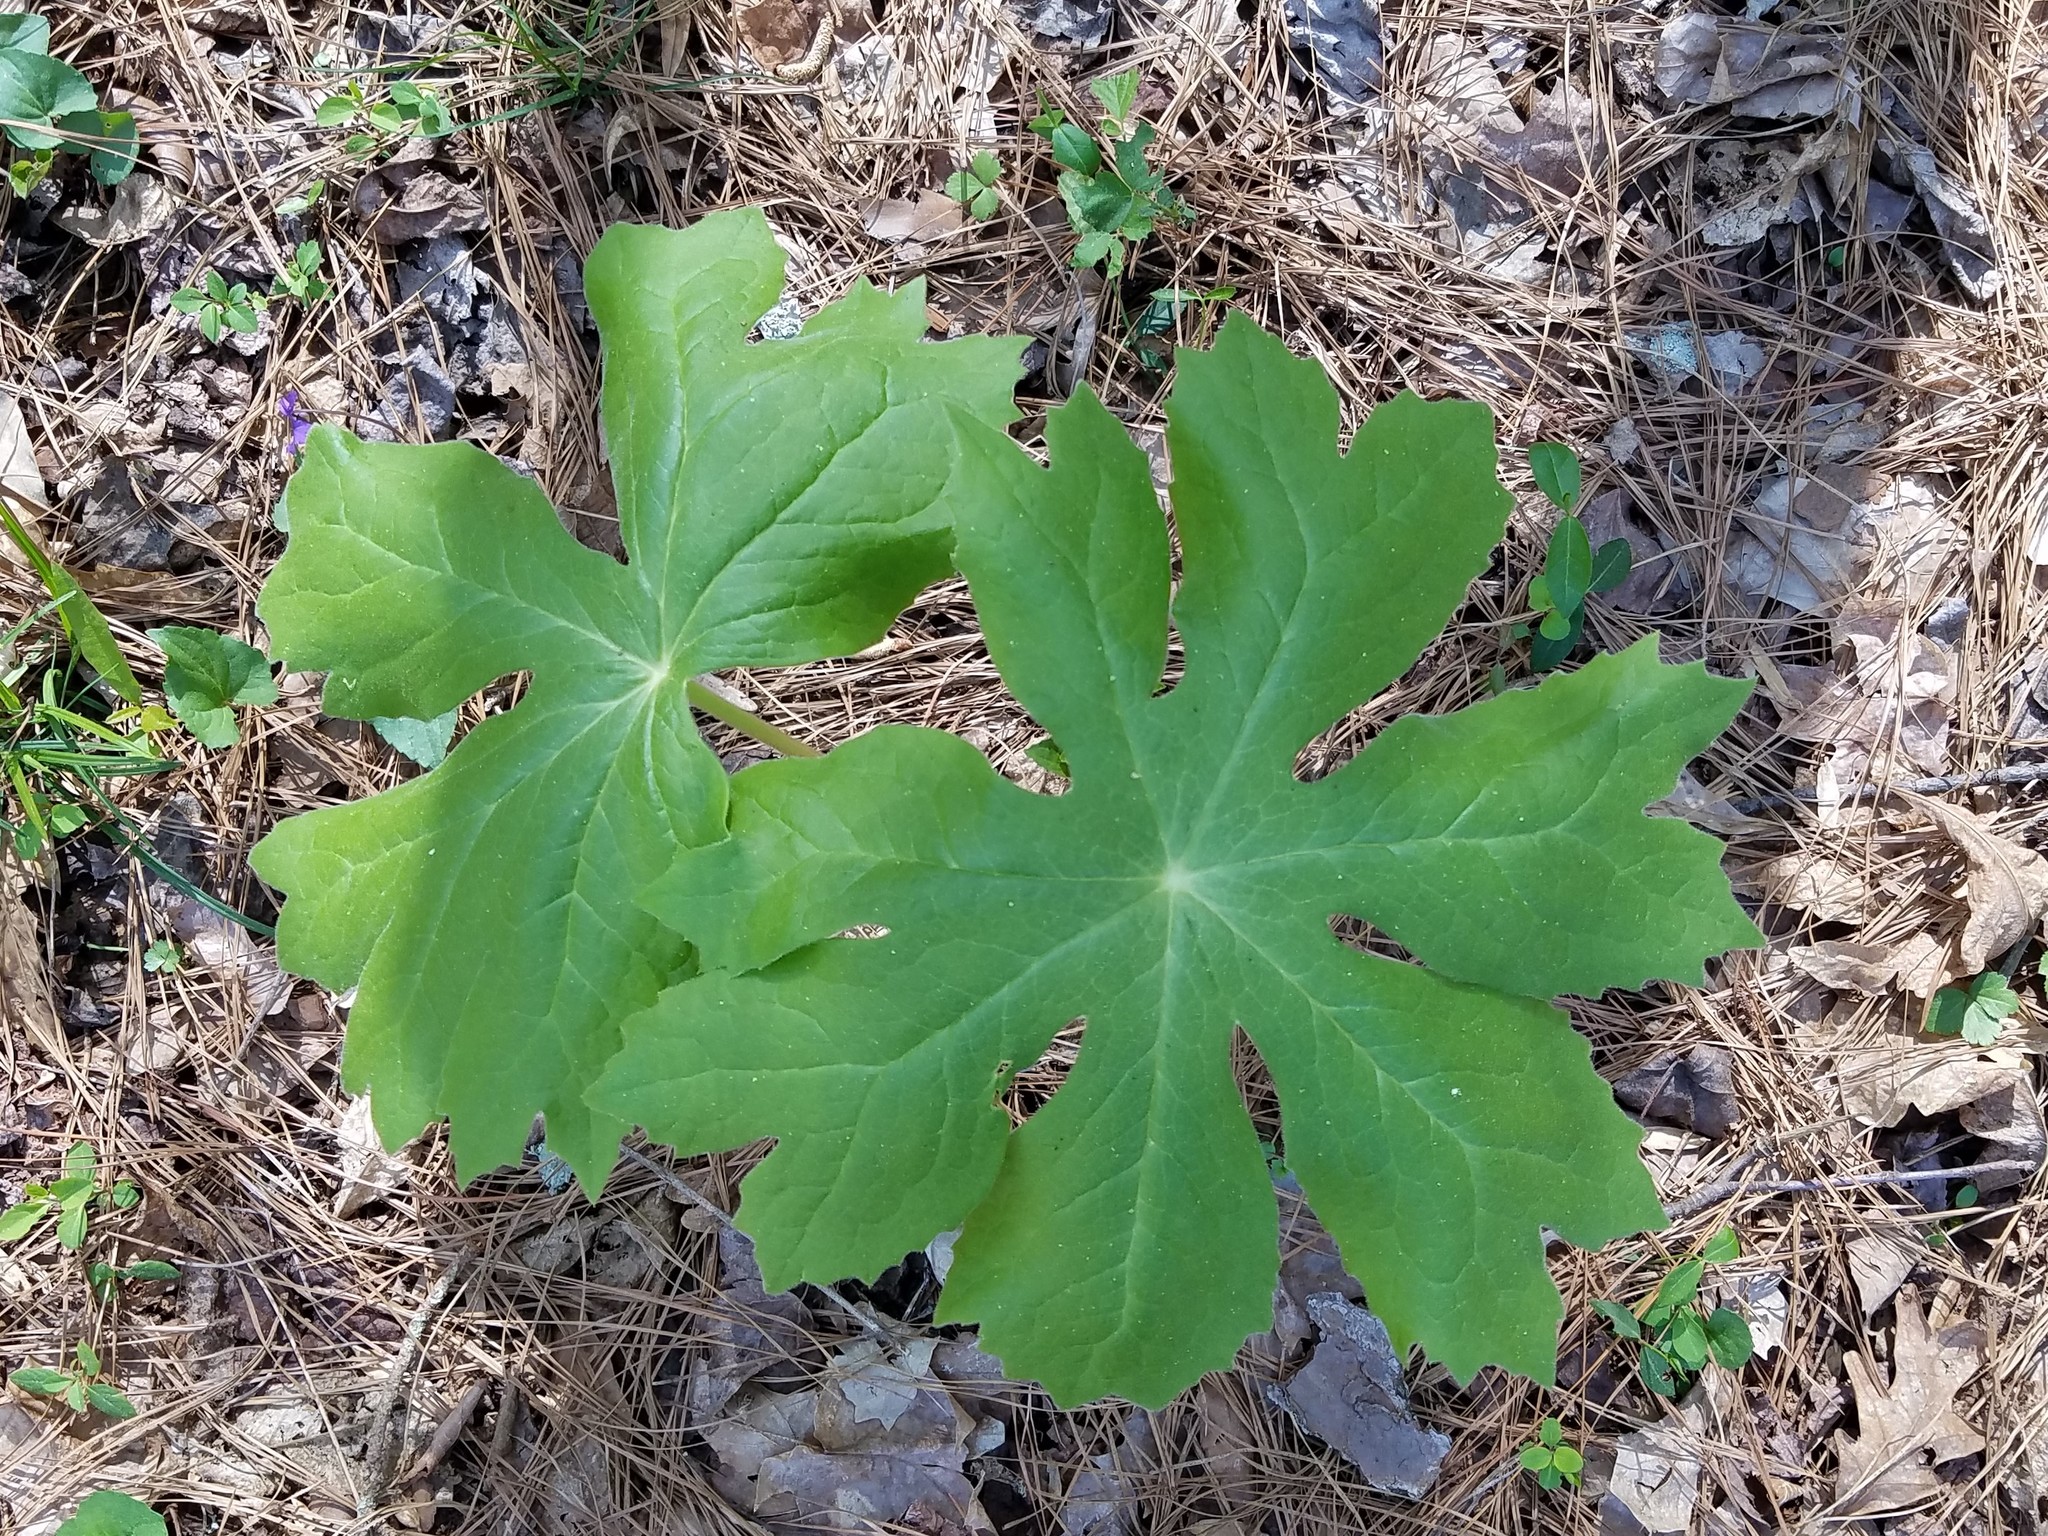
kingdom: Plantae
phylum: Tracheophyta
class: Magnoliopsida
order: Ranunculales
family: Berberidaceae
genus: Podophyllum
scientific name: Podophyllum peltatum
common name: Wild mandrake
